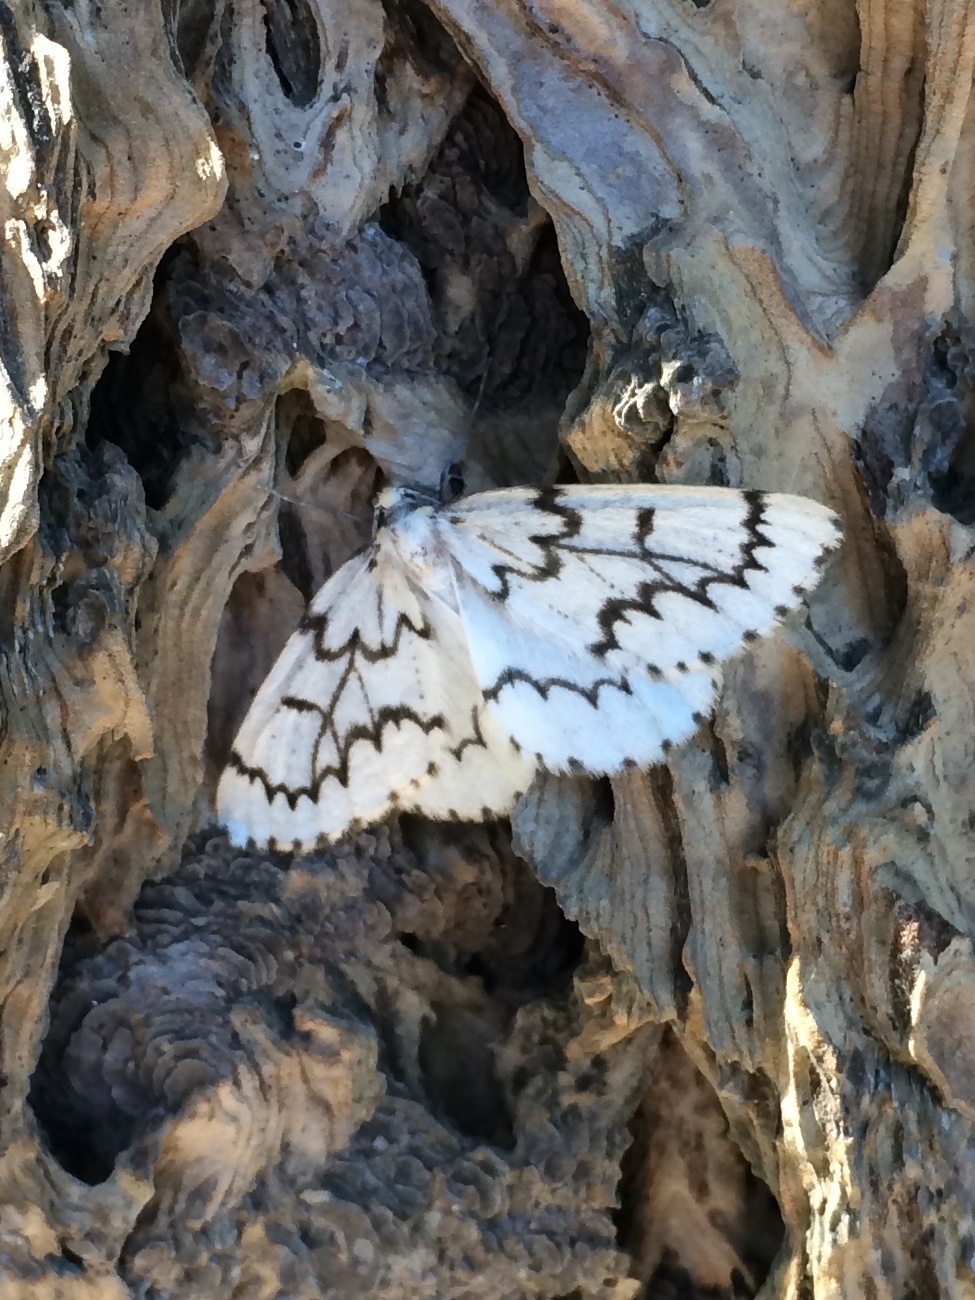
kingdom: Animalia
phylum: Arthropoda
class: Insecta
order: Lepidoptera
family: Geometridae
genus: Nepytia
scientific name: Nepytia phantasmaria
